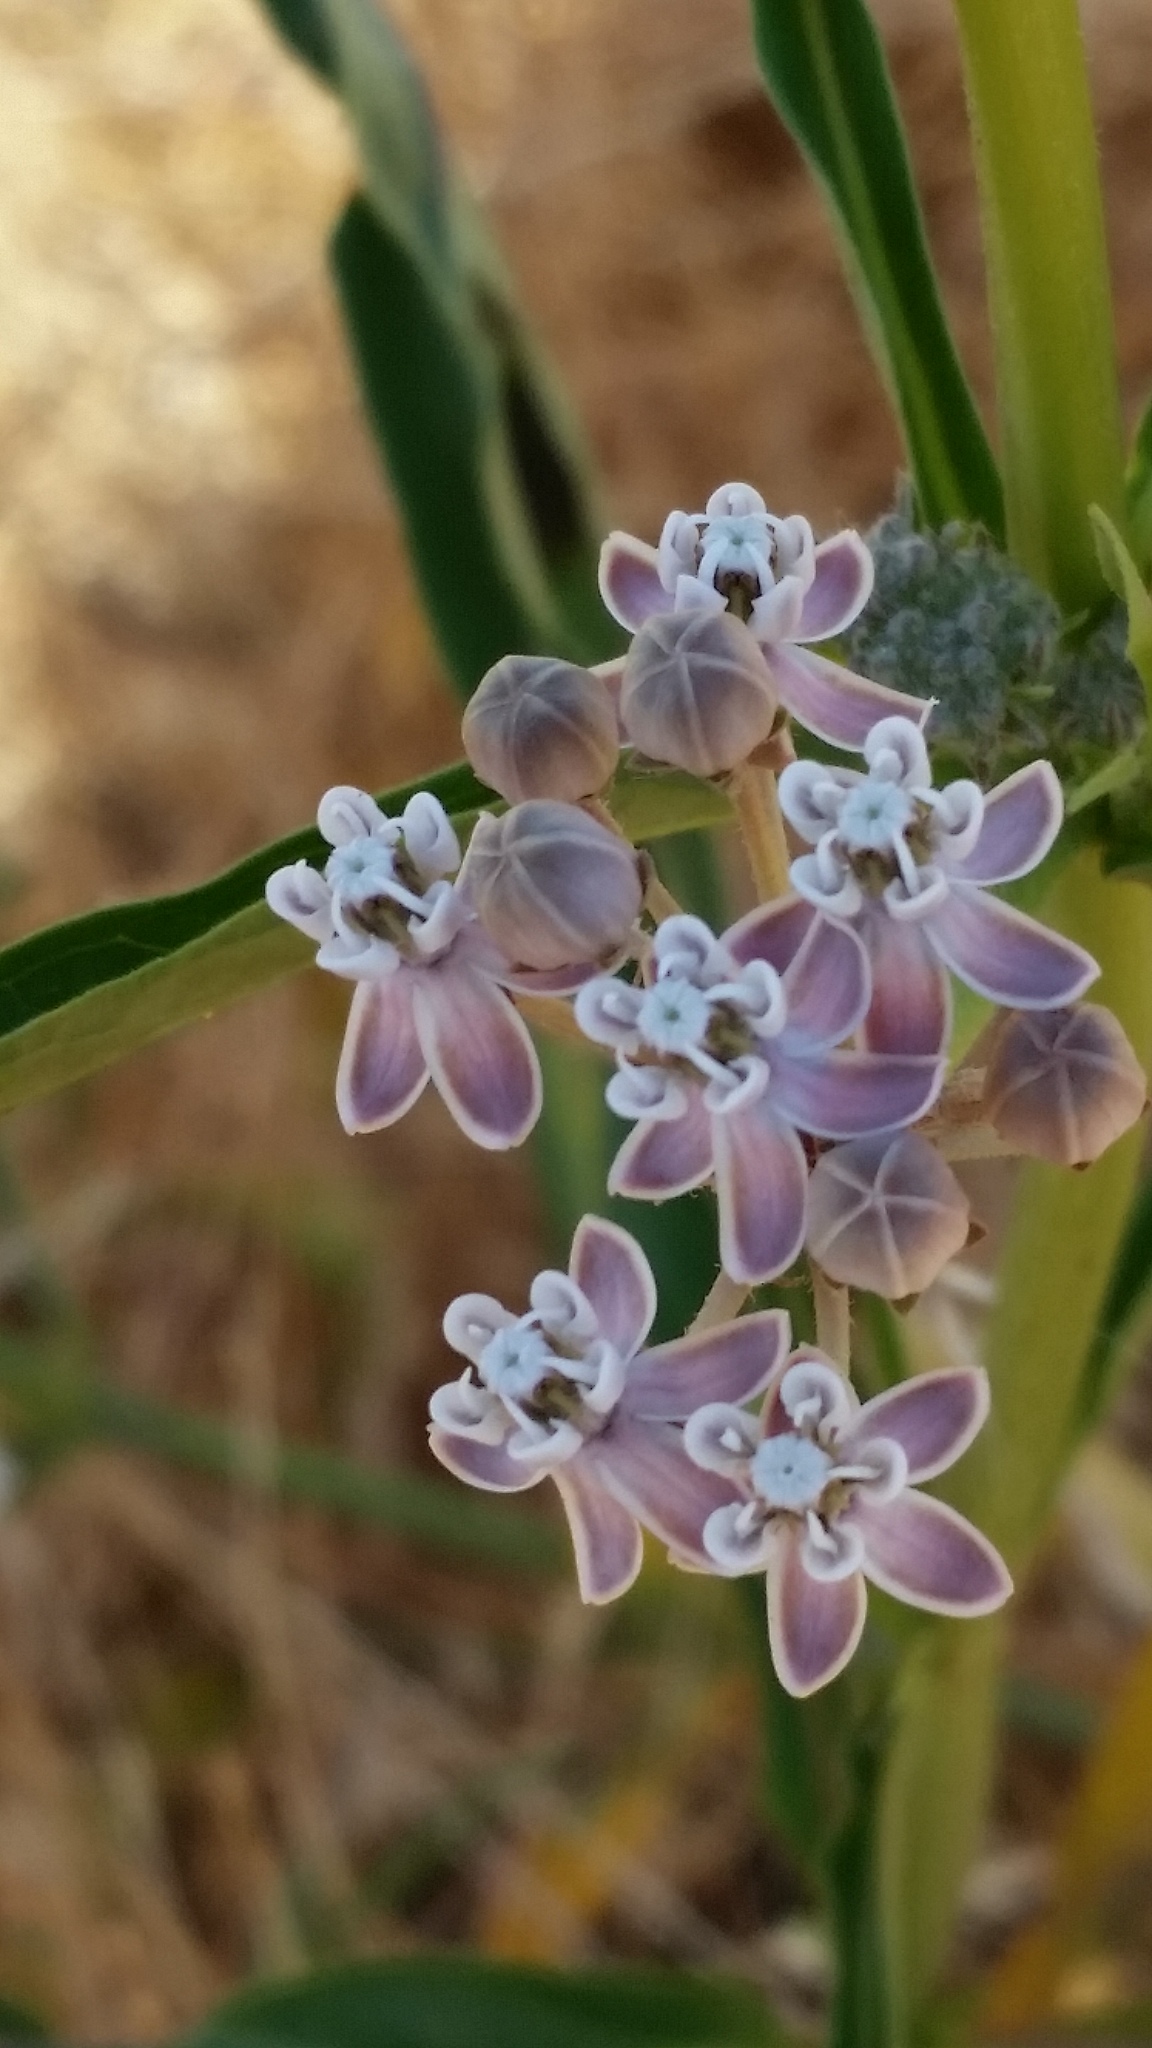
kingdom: Plantae
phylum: Tracheophyta
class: Magnoliopsida
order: Gentianales
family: Apocynaceae
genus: Asclepias
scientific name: Asclepias fascicularis
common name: Mexican milkweed
